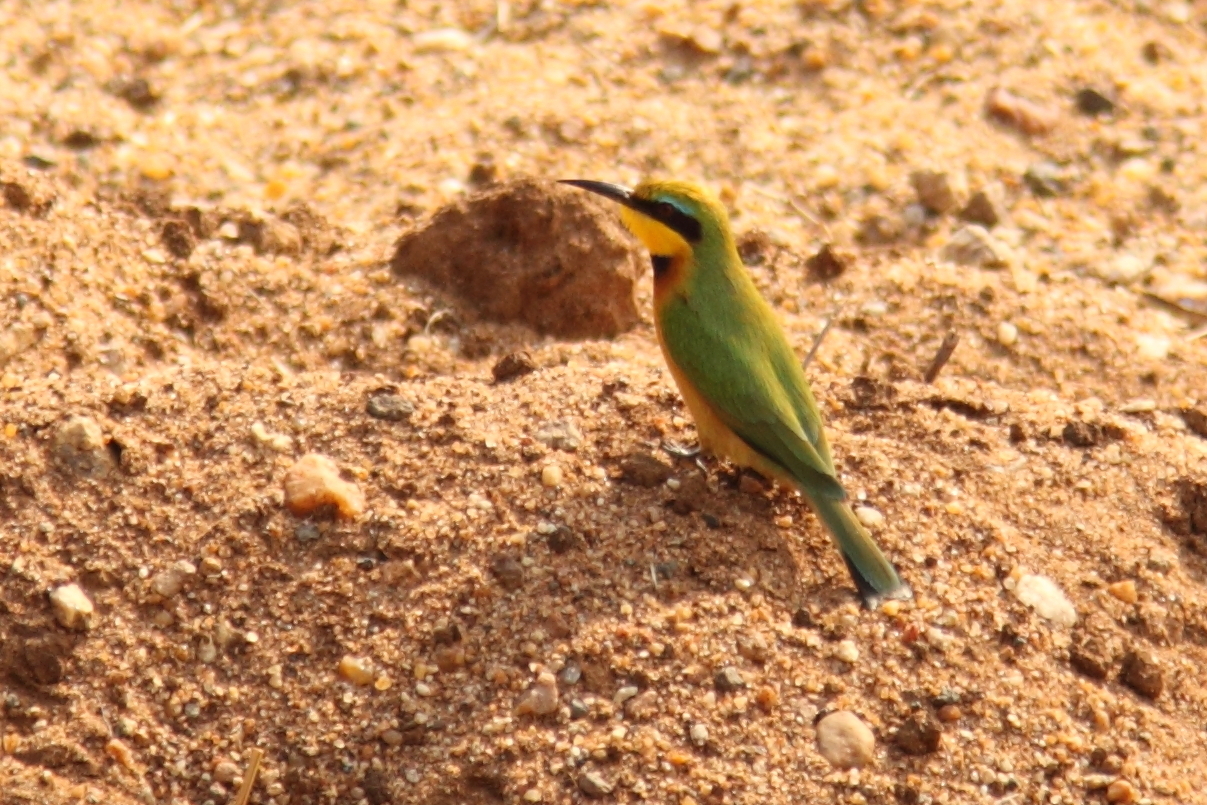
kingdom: Animalia
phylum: Chordata
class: Aves
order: Coraciiformes
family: Meropidae
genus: Merops
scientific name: Merops pusillus
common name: Little bee-eater
